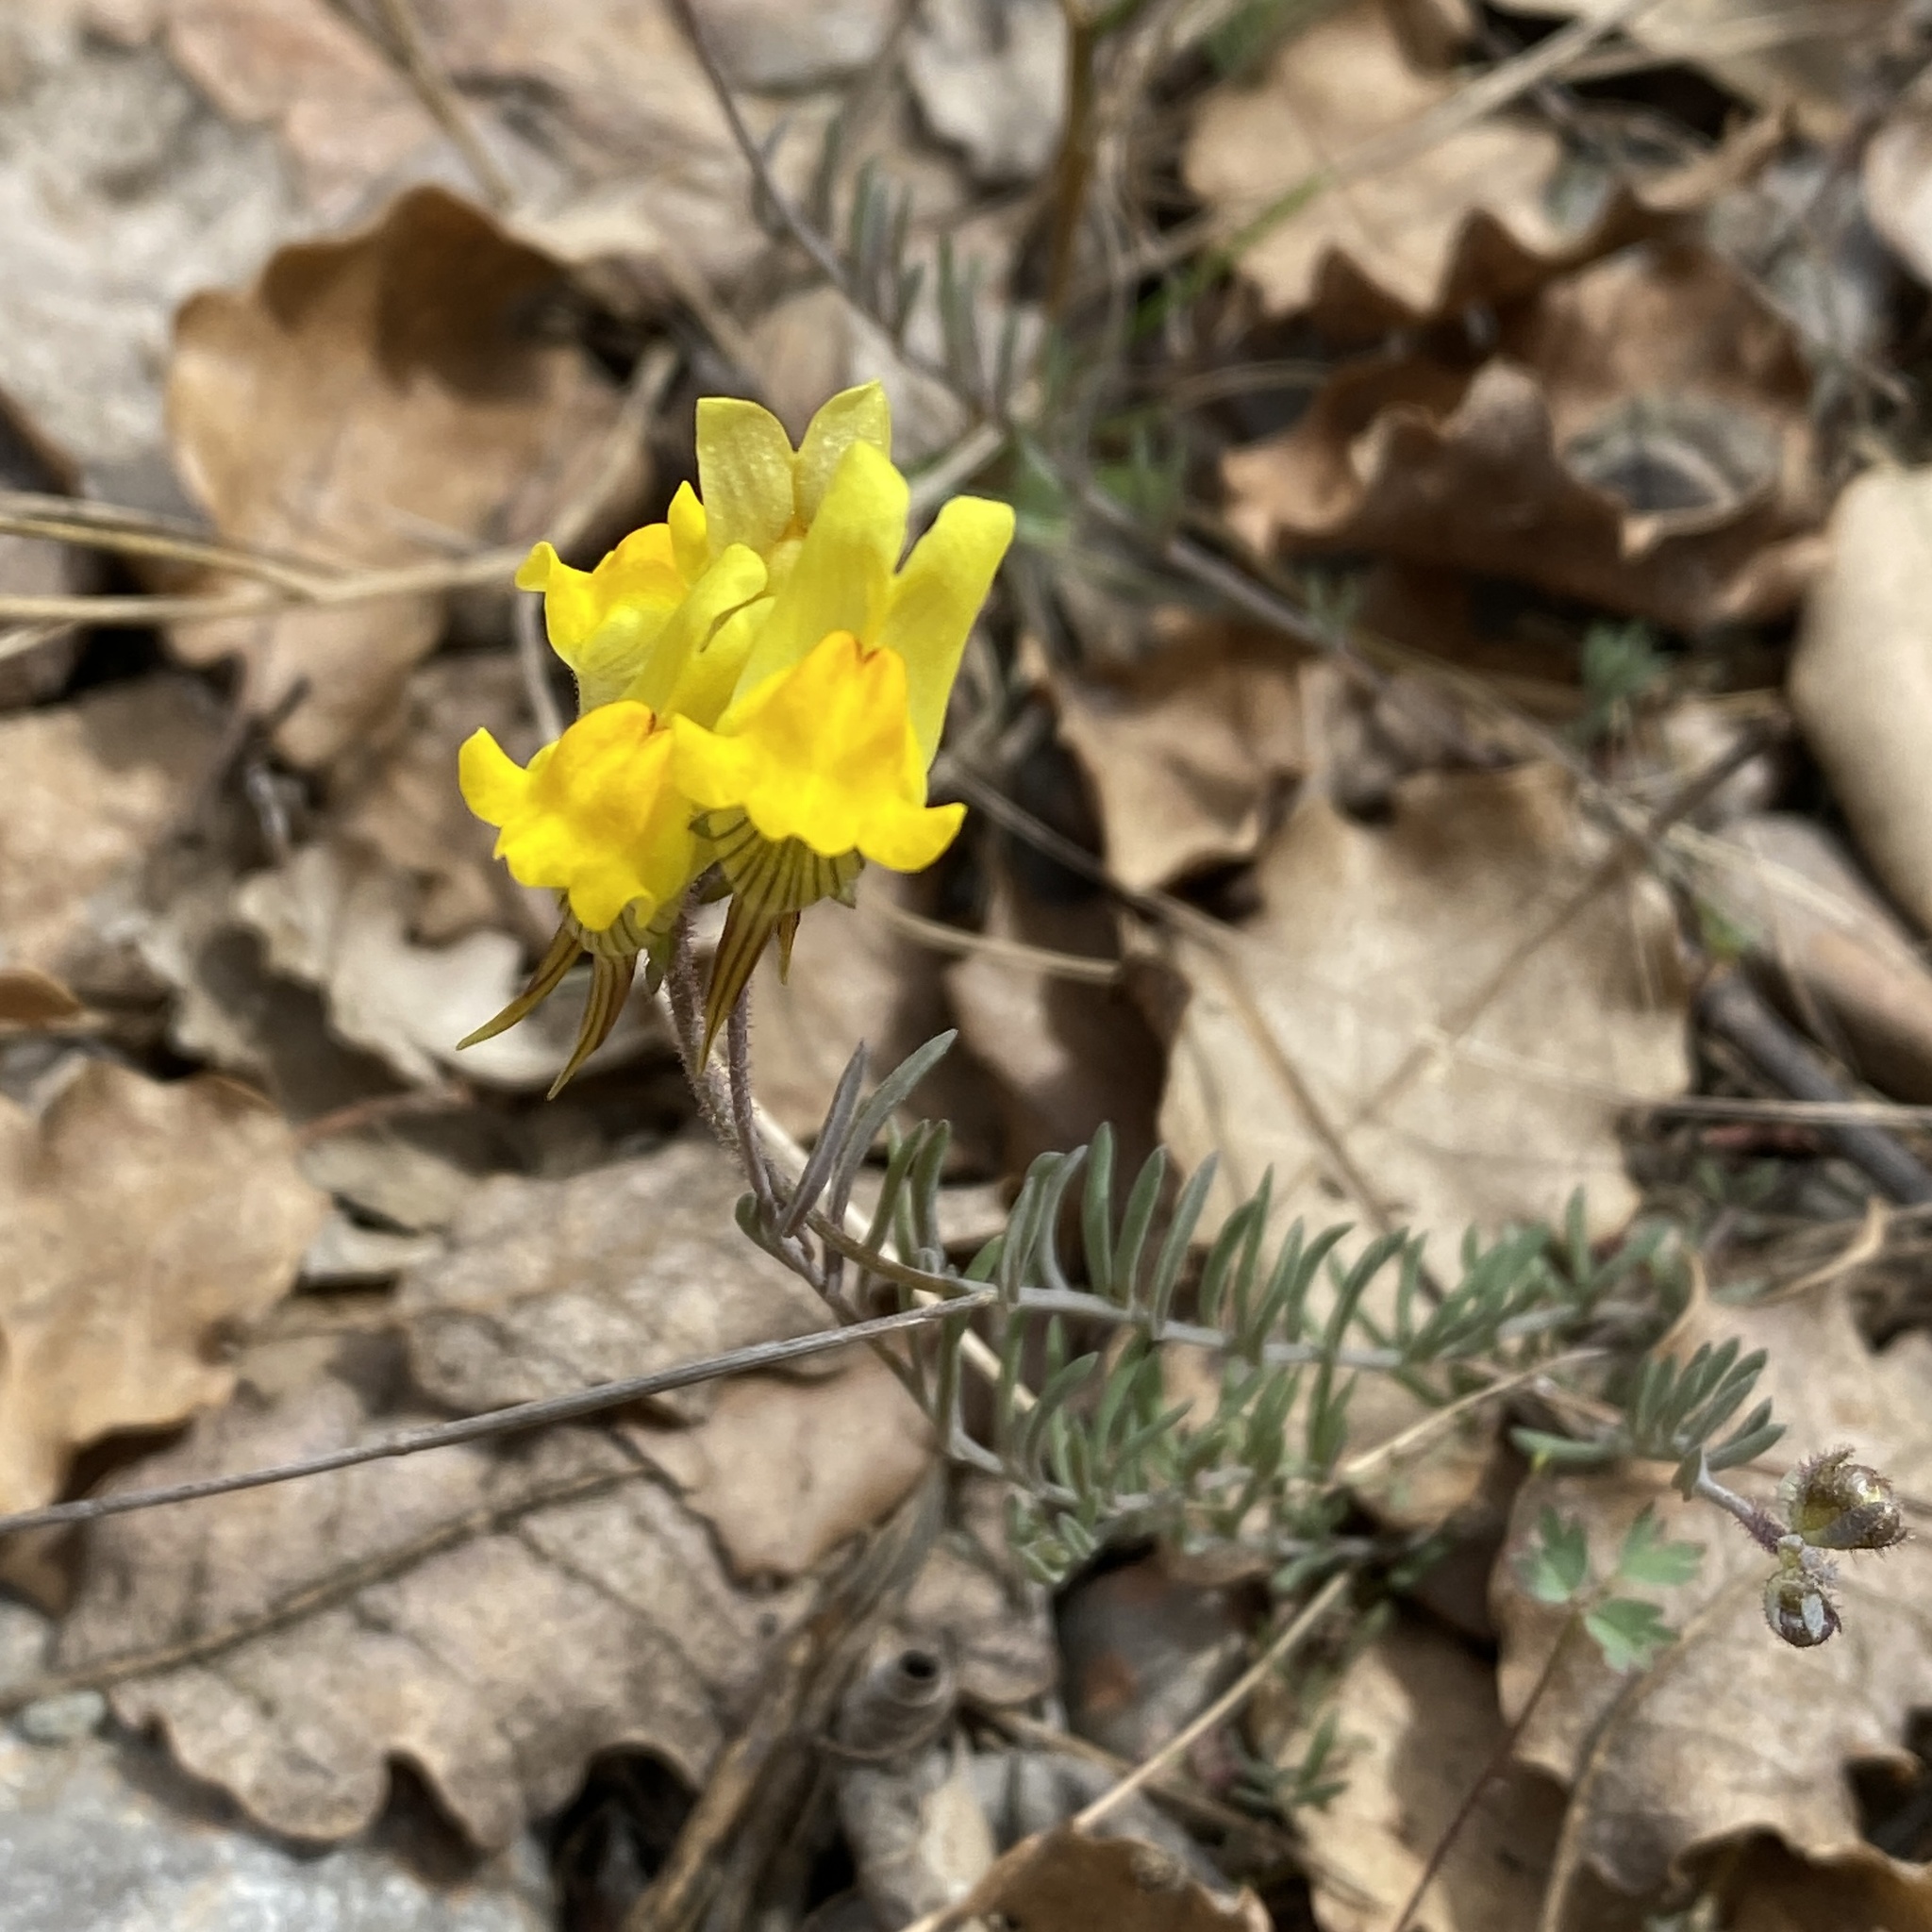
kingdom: Plantae
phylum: Tracheophyta
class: Magnoliopsida
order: Lamiales
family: Plantaginaceae
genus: Linaria
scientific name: Linaria supina
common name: Prostrate toadflax
